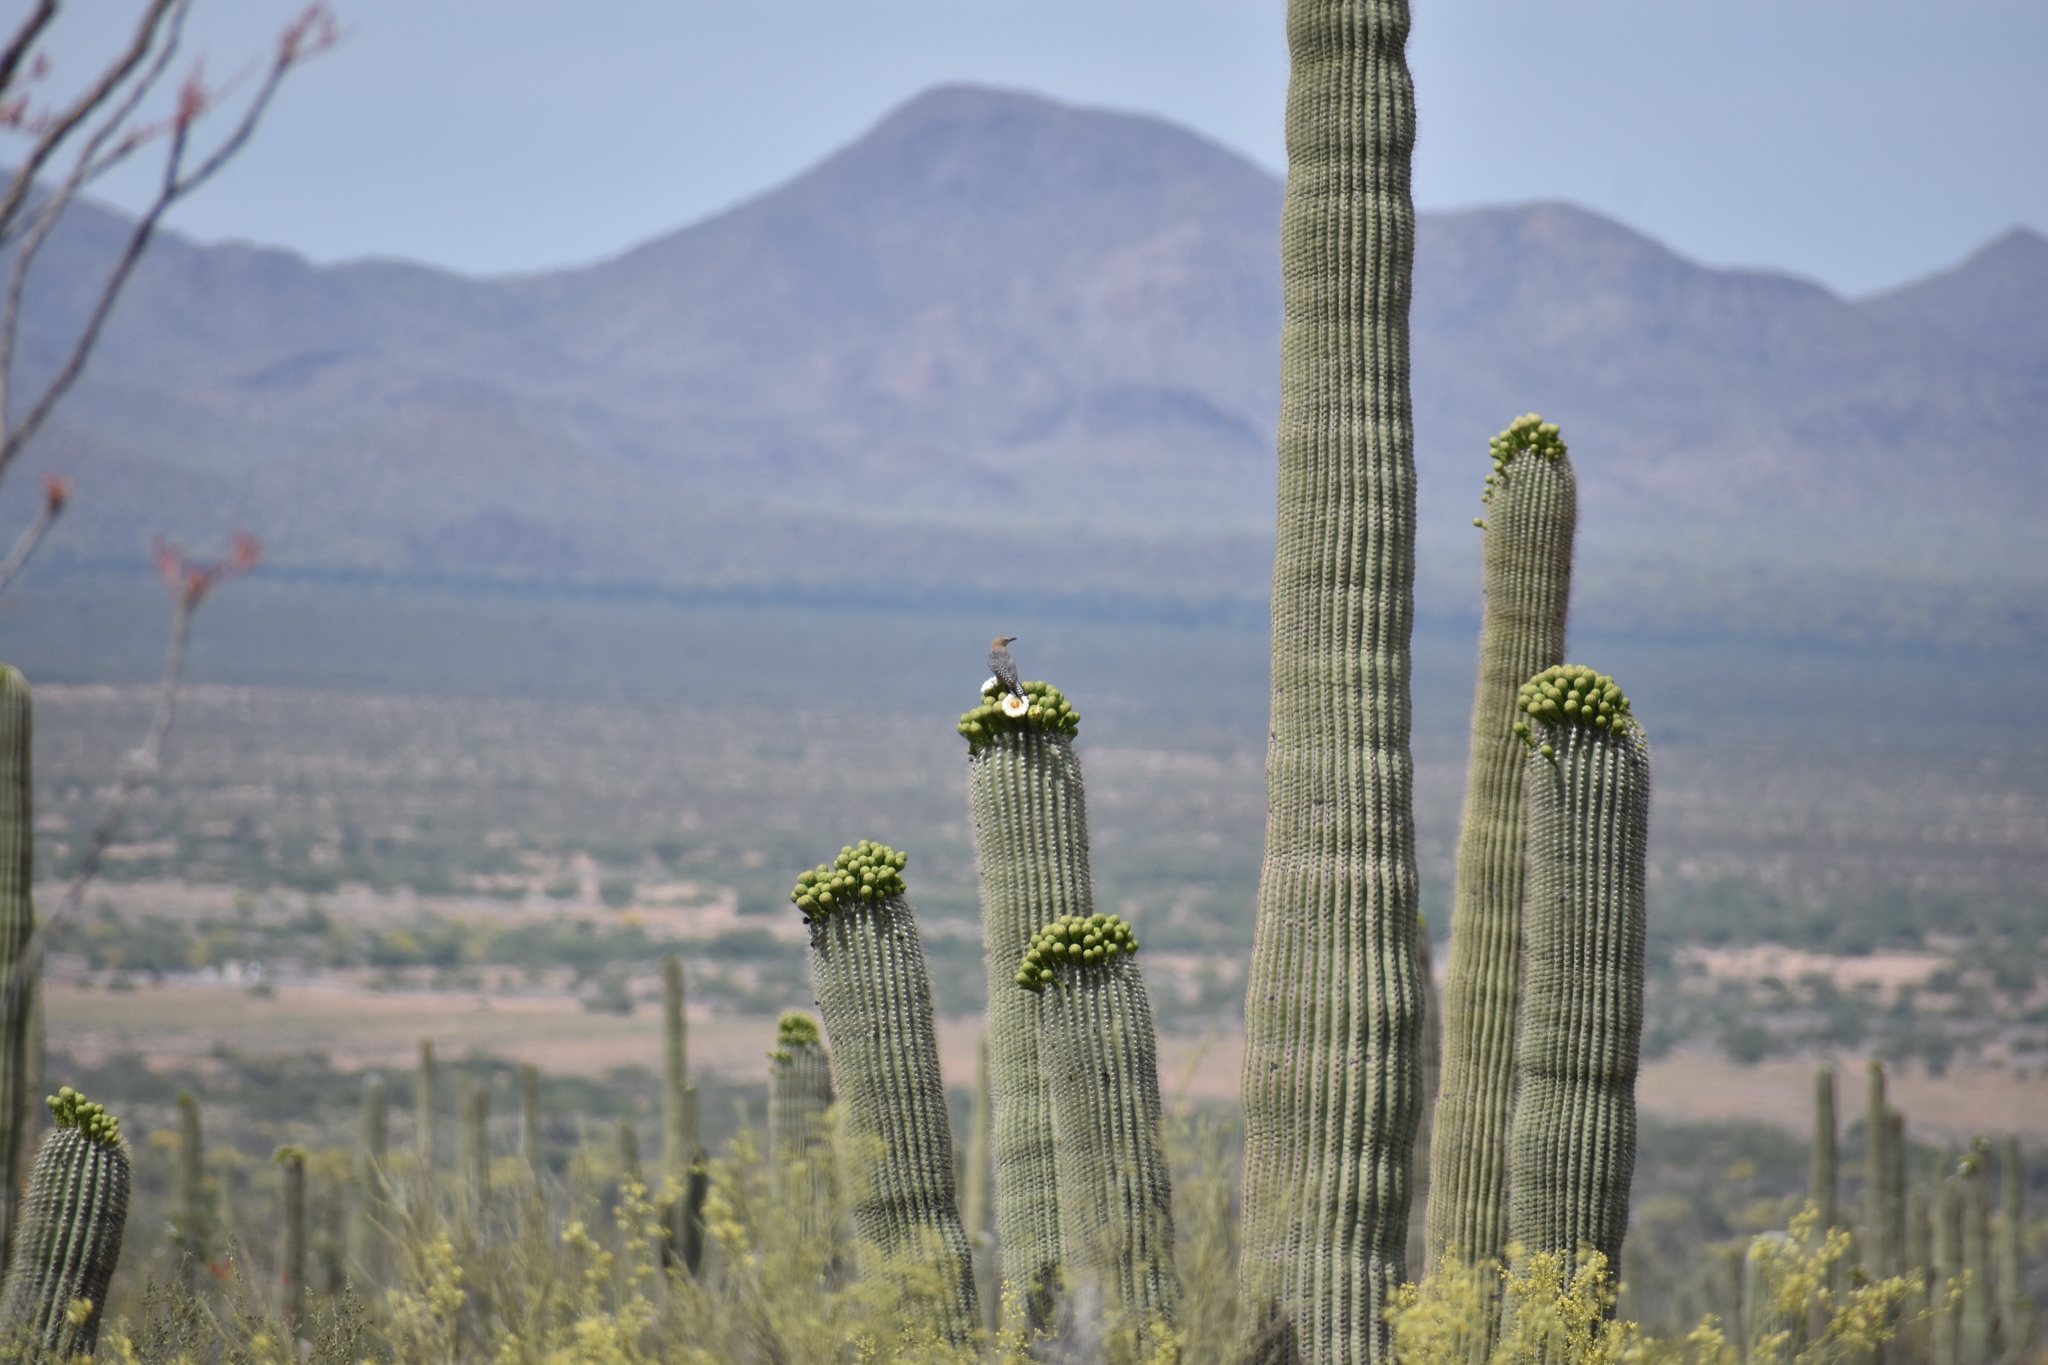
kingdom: Animalia
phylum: Chordata
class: Aves
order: Piciformes
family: Picidae
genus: Melanerpes
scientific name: Melanerpes uropygialis
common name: Gila woodpecker
